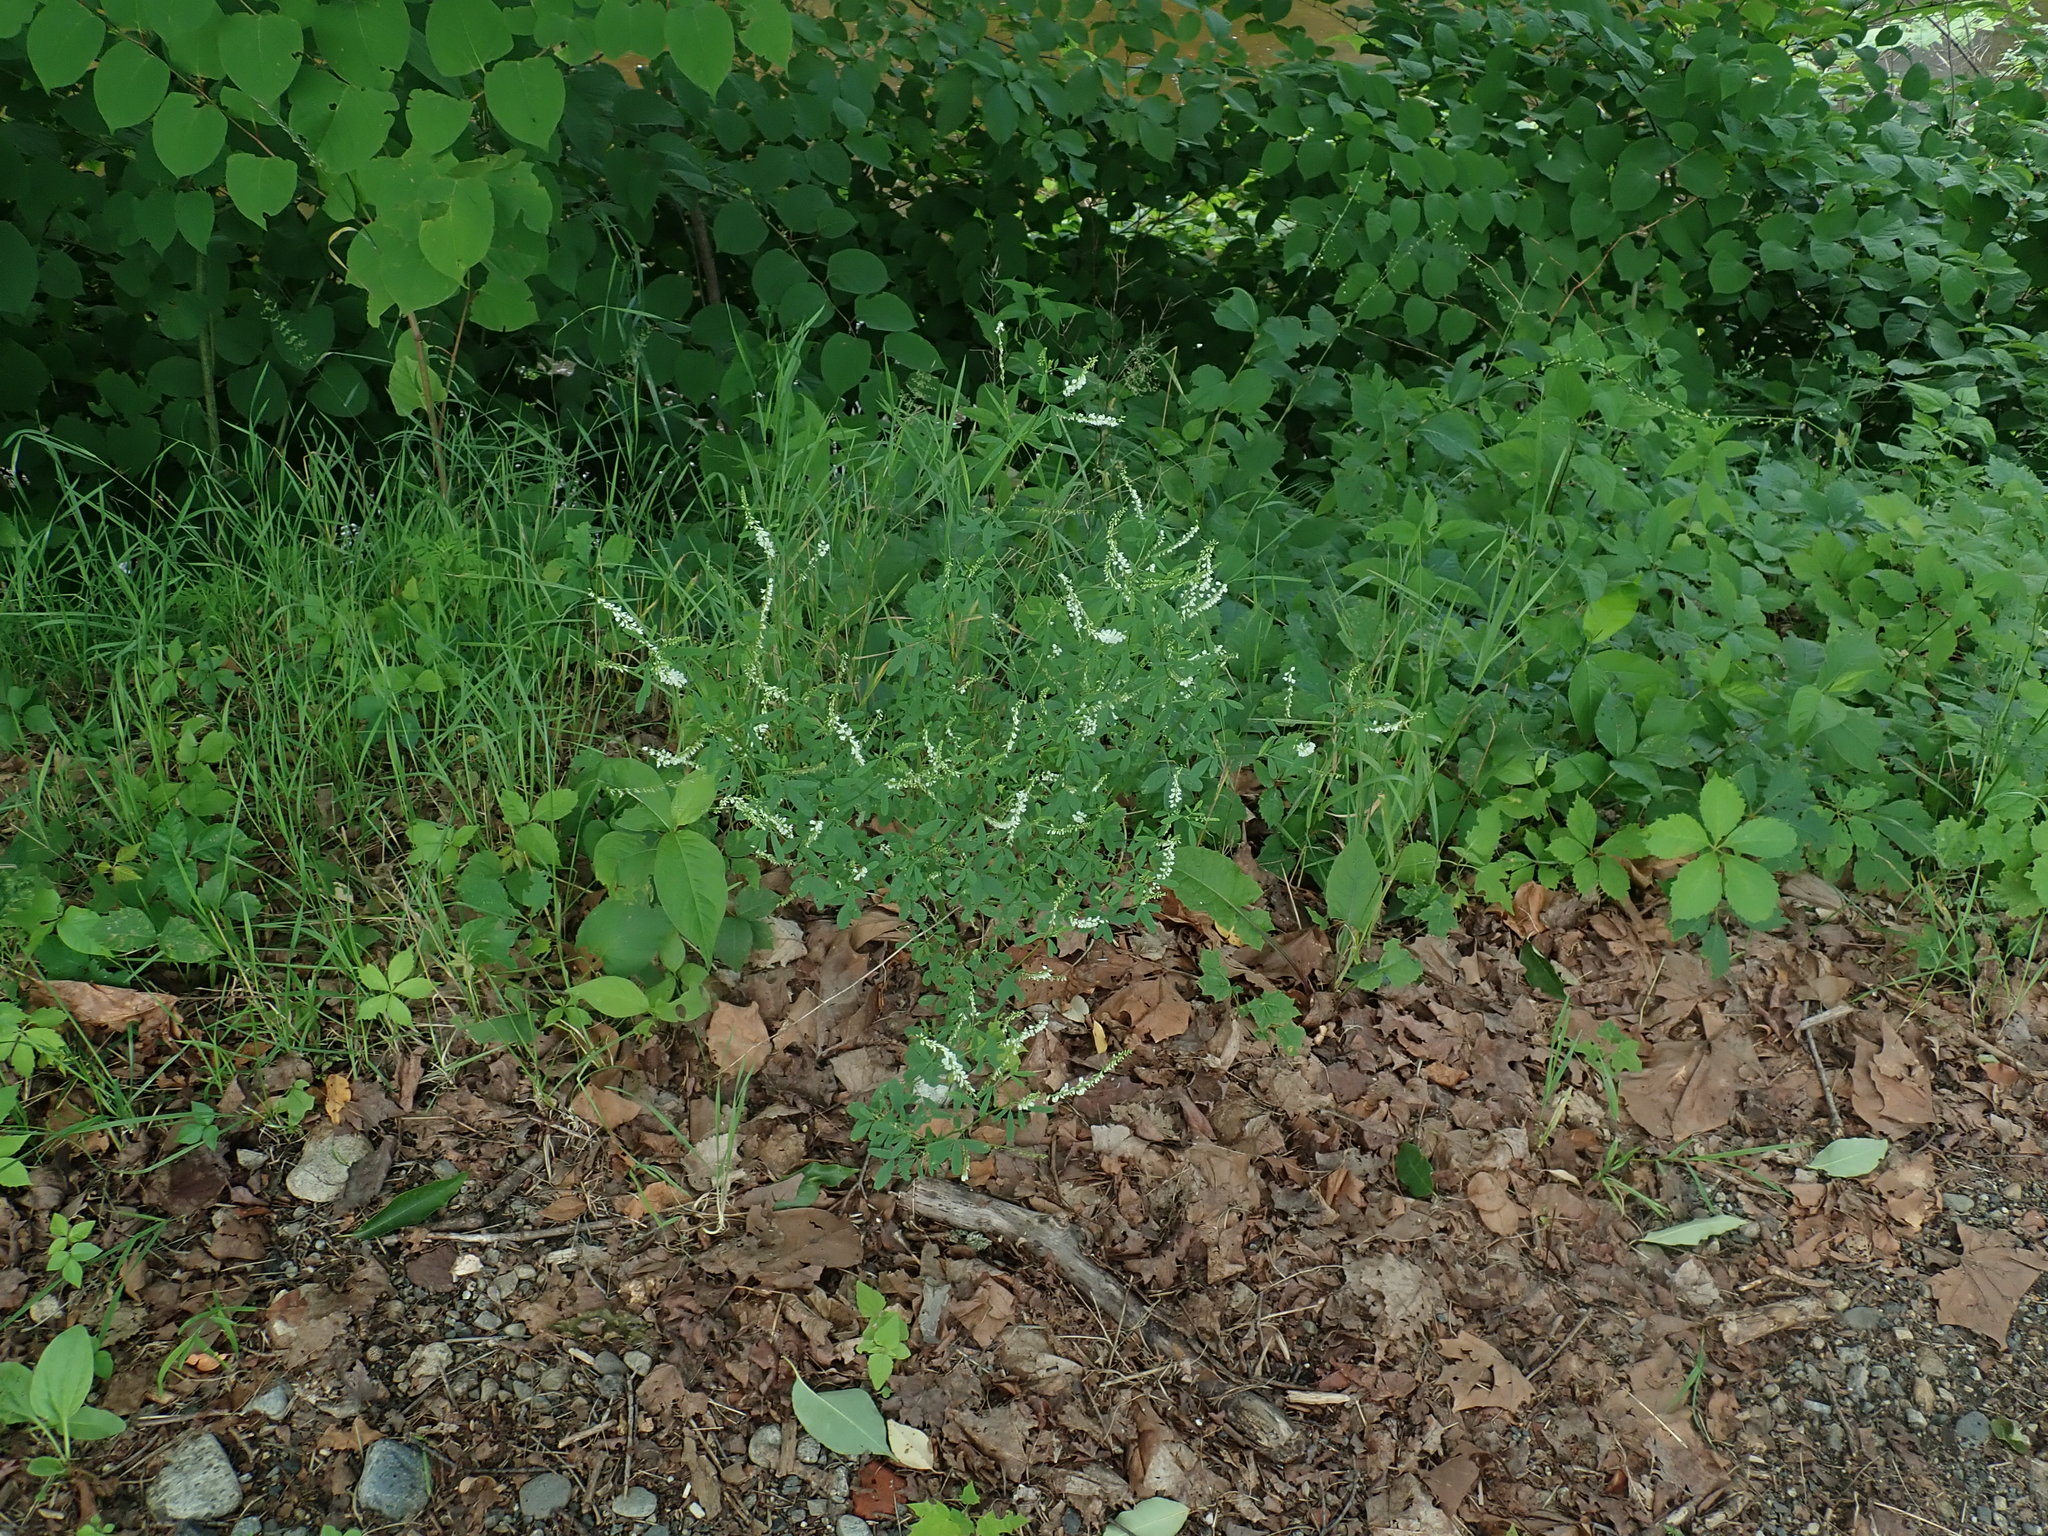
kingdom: Plantae
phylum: Tracheophyta
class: Magnoliopsida
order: Fabales
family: Fabaceae
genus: Melilotus
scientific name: Melilotus albus
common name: White melilot
